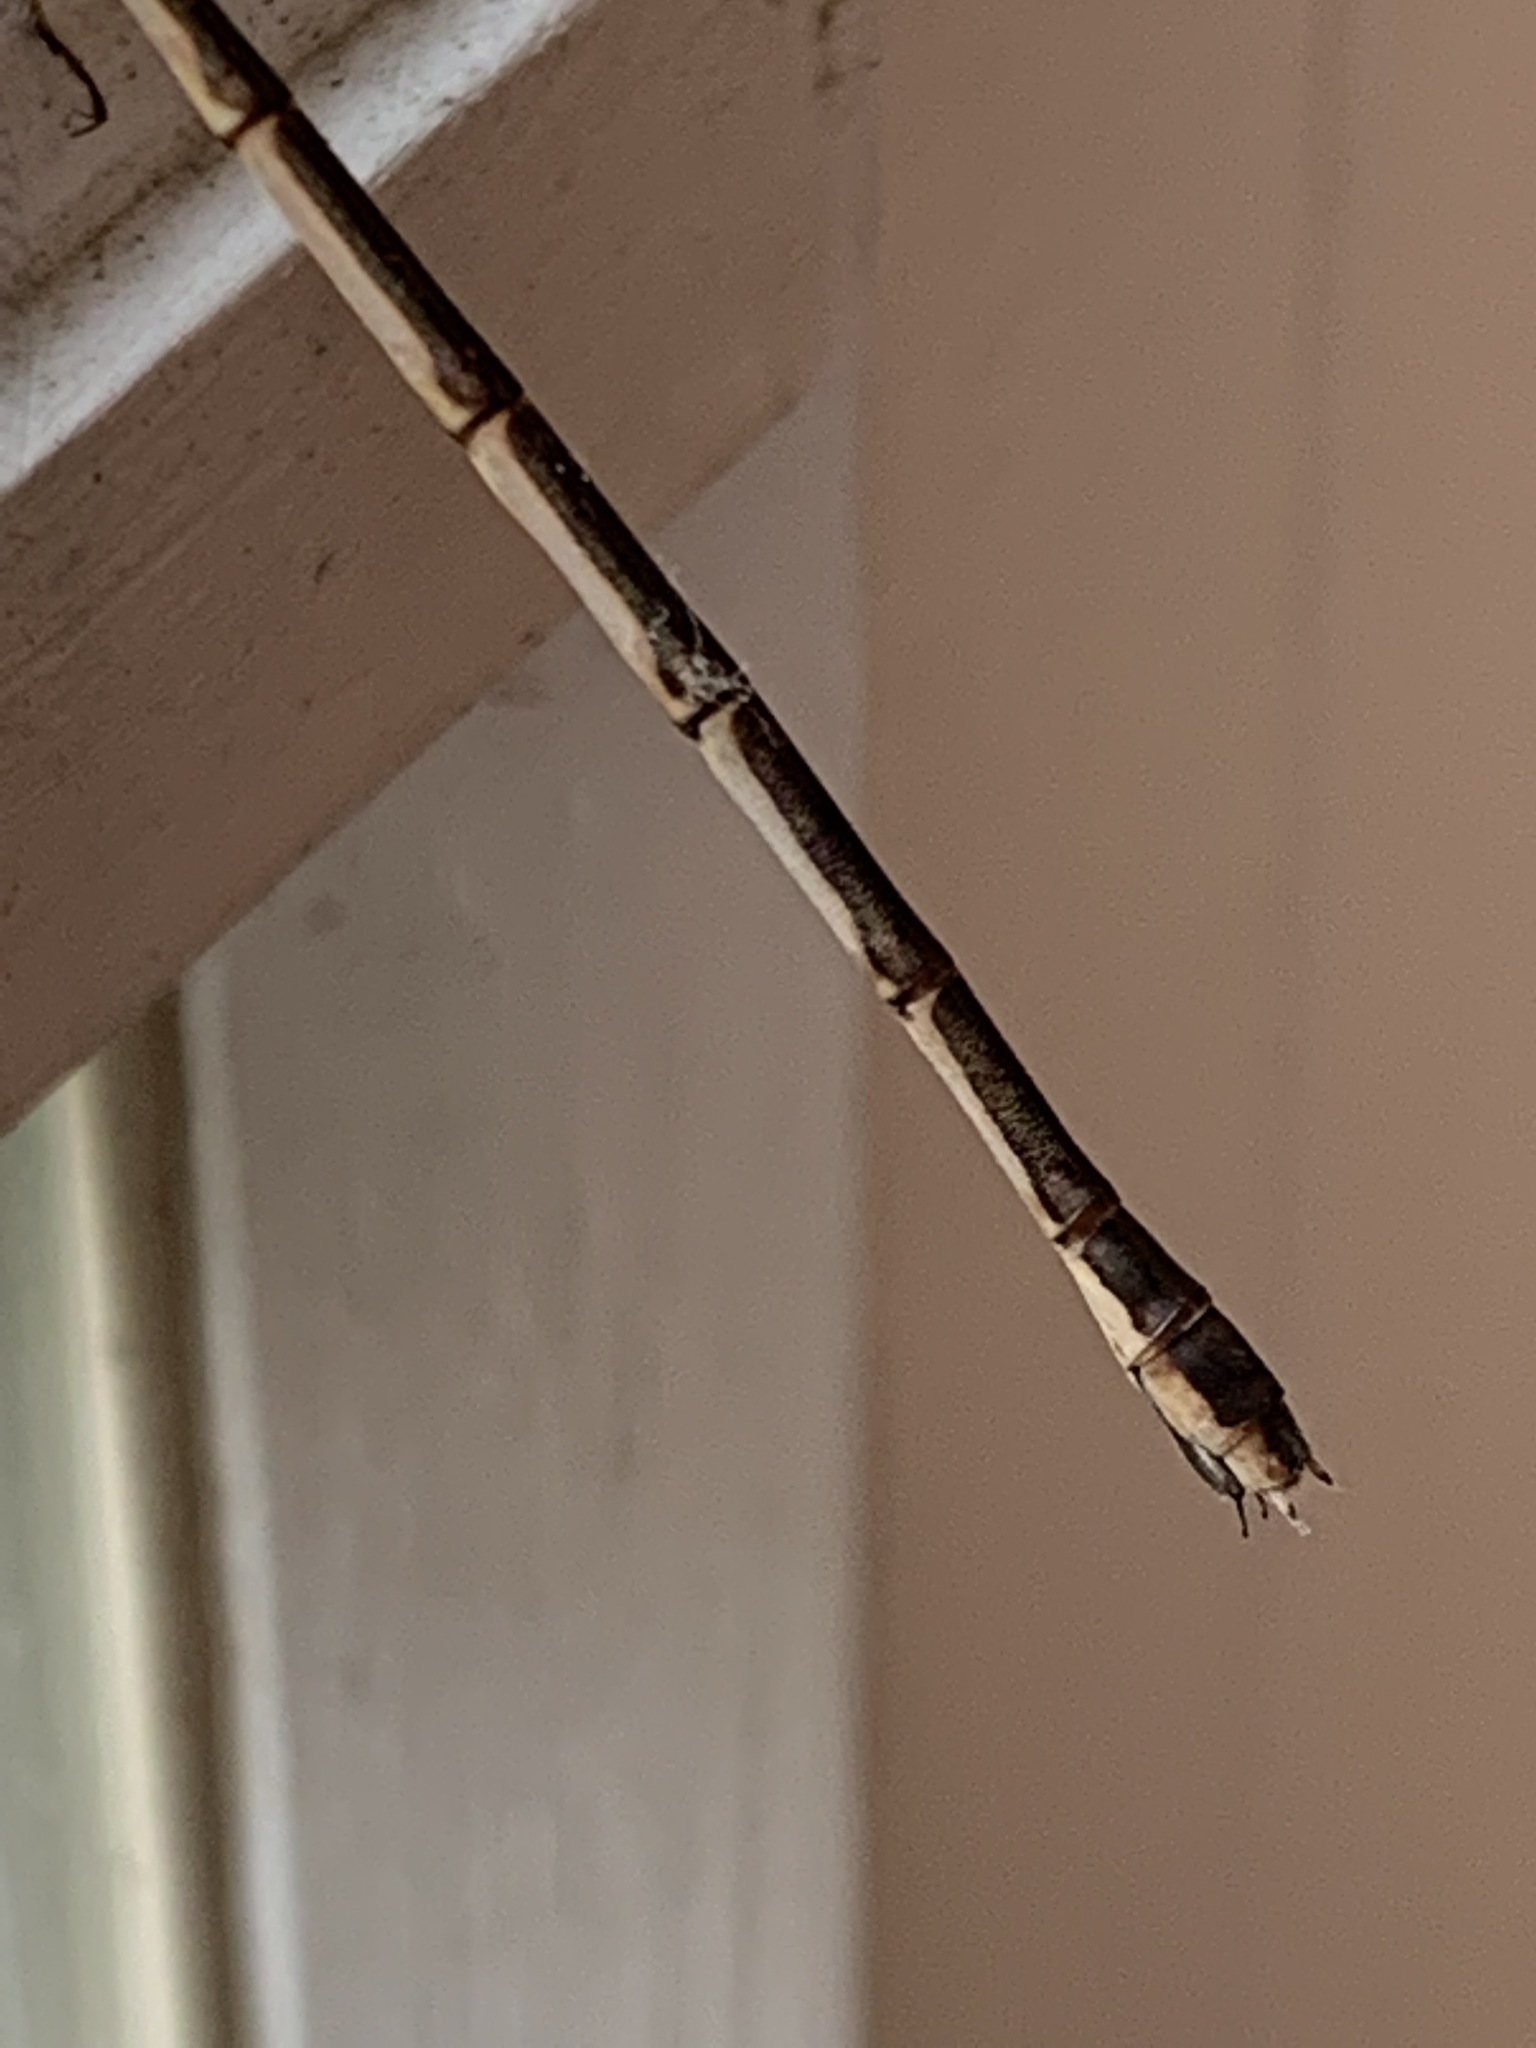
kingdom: Animalia
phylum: Arthropoda
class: Insecta
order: Odonata
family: Lestidae
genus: Lestes
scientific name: Lestes rectangularis
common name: Slender spreadwing
